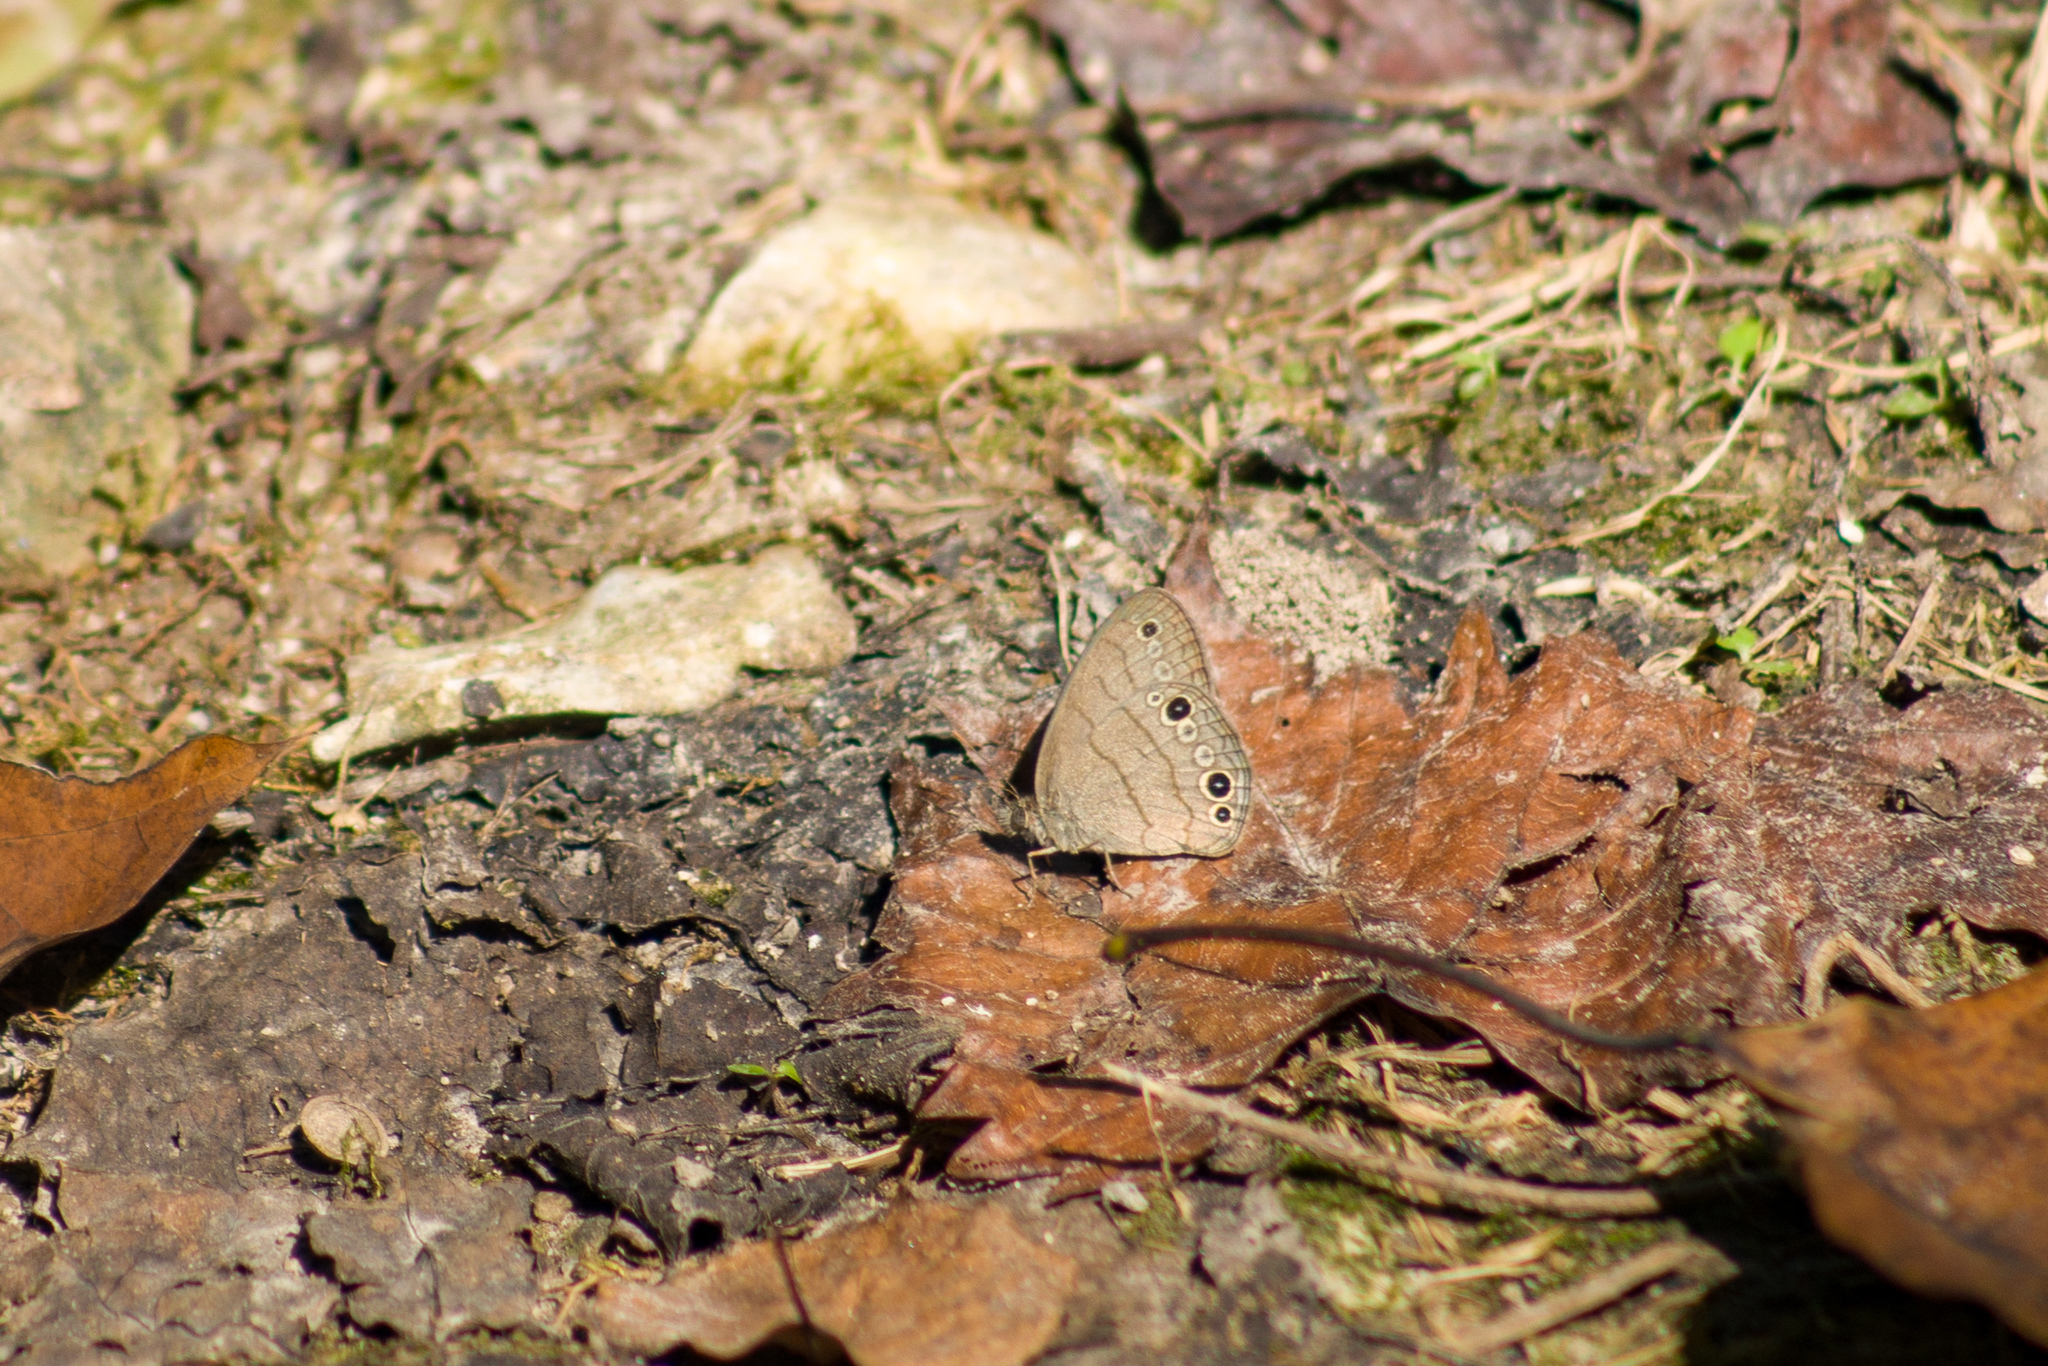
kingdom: Animalia
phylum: Arthropoda
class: Insecta
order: Lepidoptera
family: Nymphalidae
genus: Hermeuptychia
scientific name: Hermeuptychia intricata
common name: Intricate satyr
